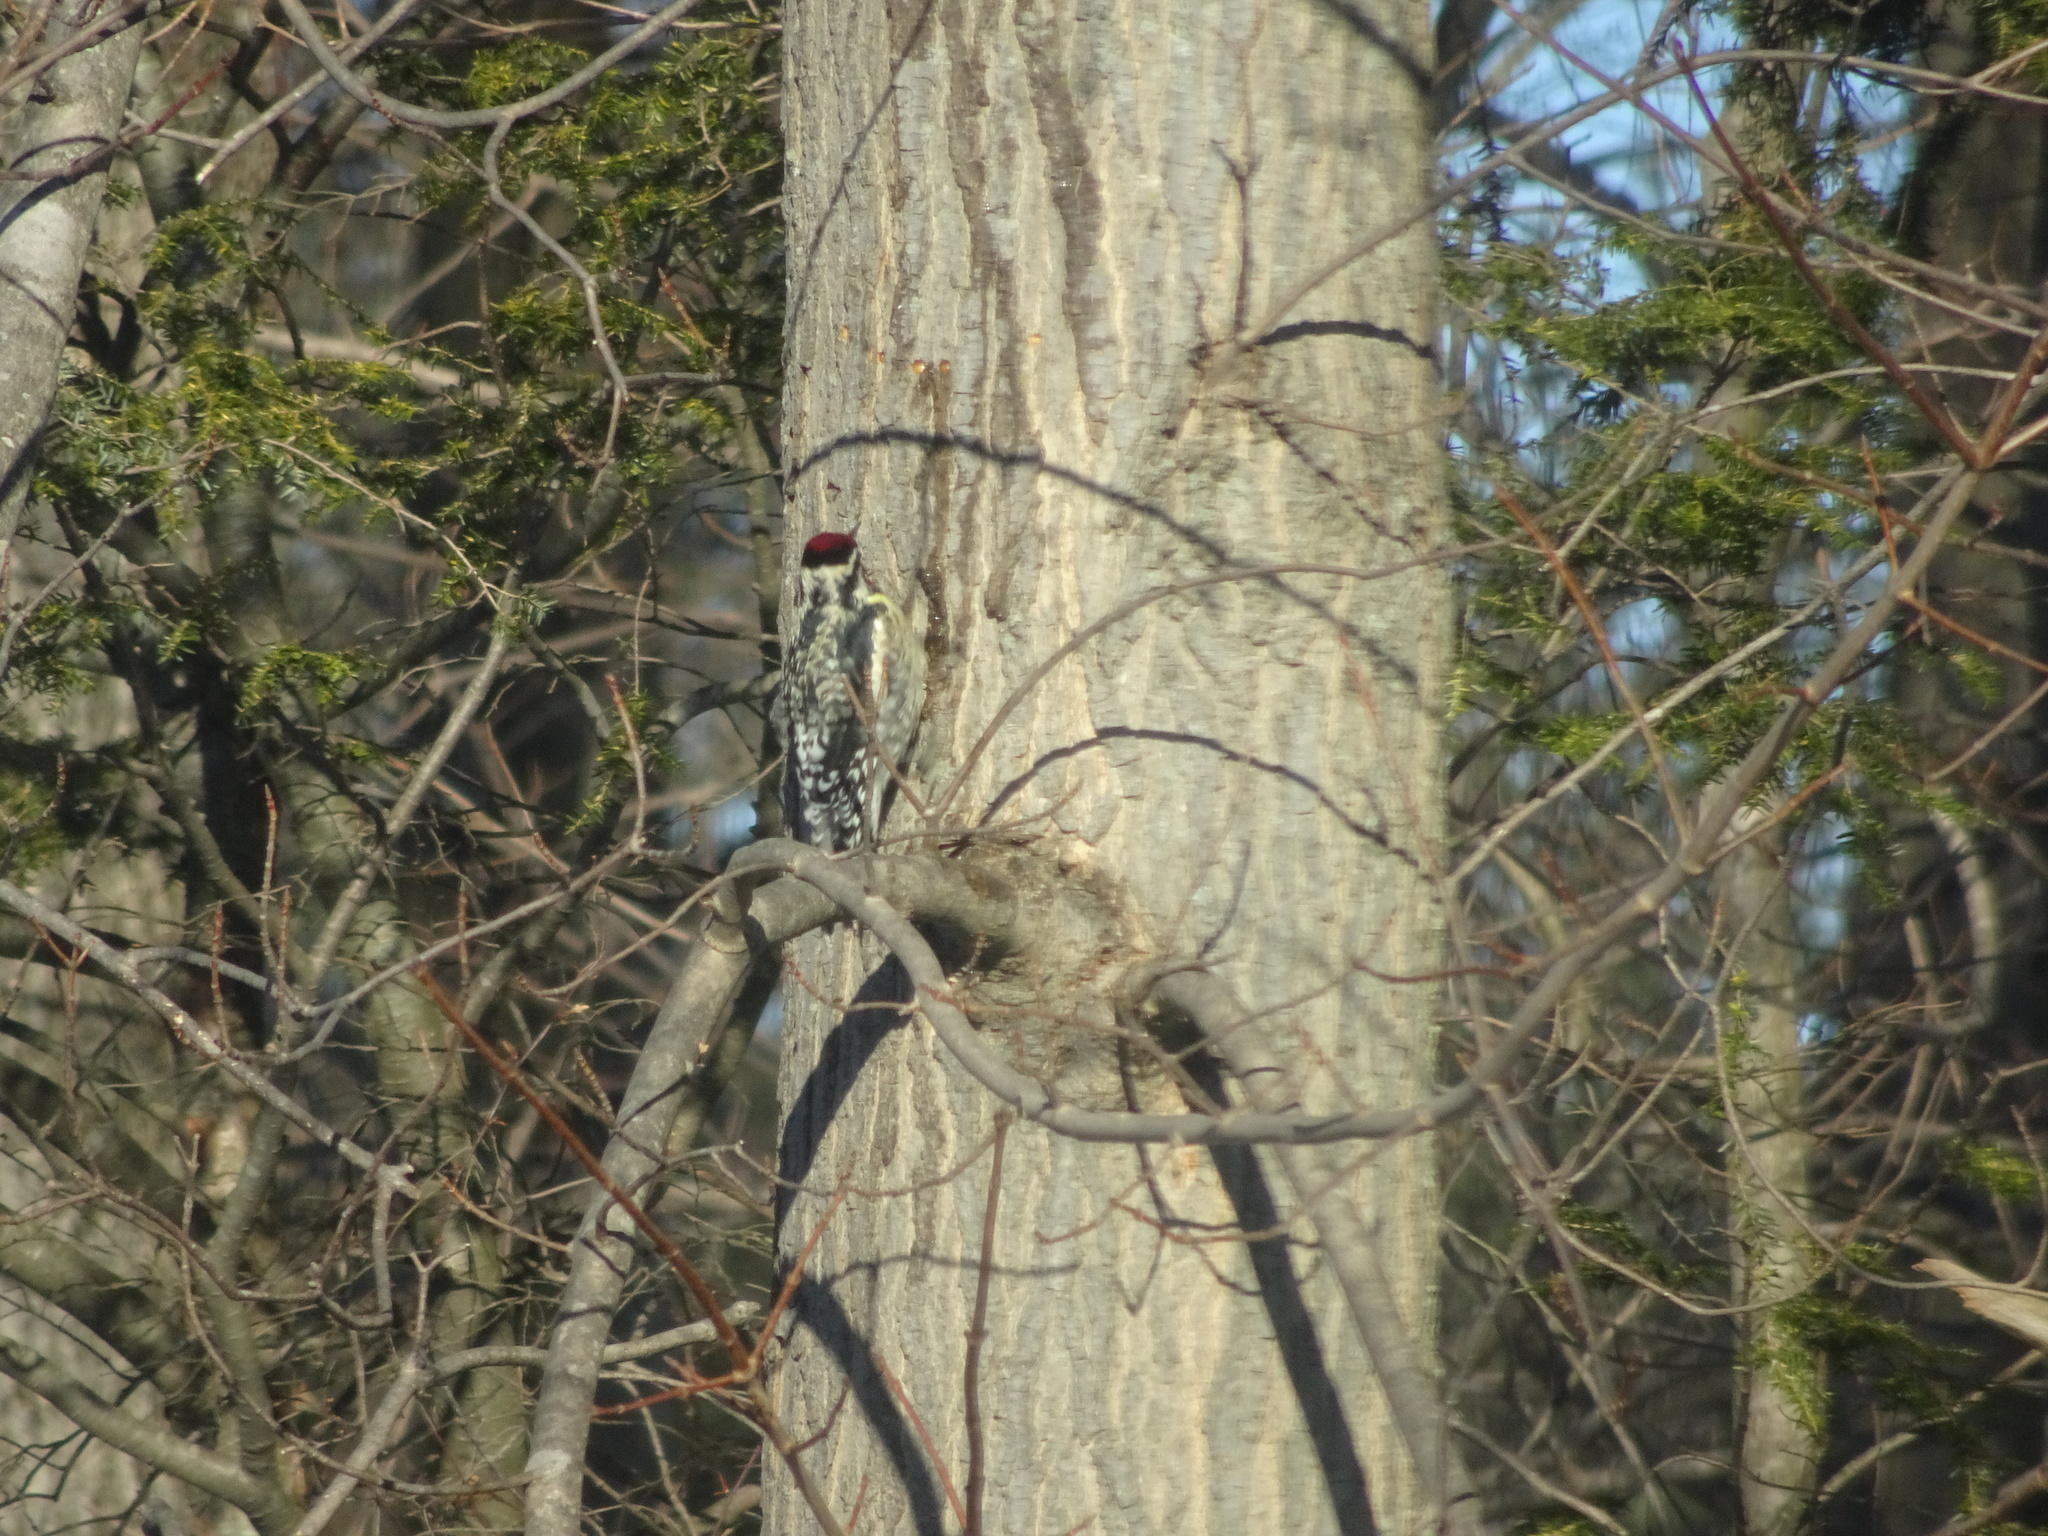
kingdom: Animalia
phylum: Chordata
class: Aves
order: Piciformes
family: Picidae
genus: Sphyrapicus
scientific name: Sphyrapicus varius
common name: Yellow-bellied sapsucker
